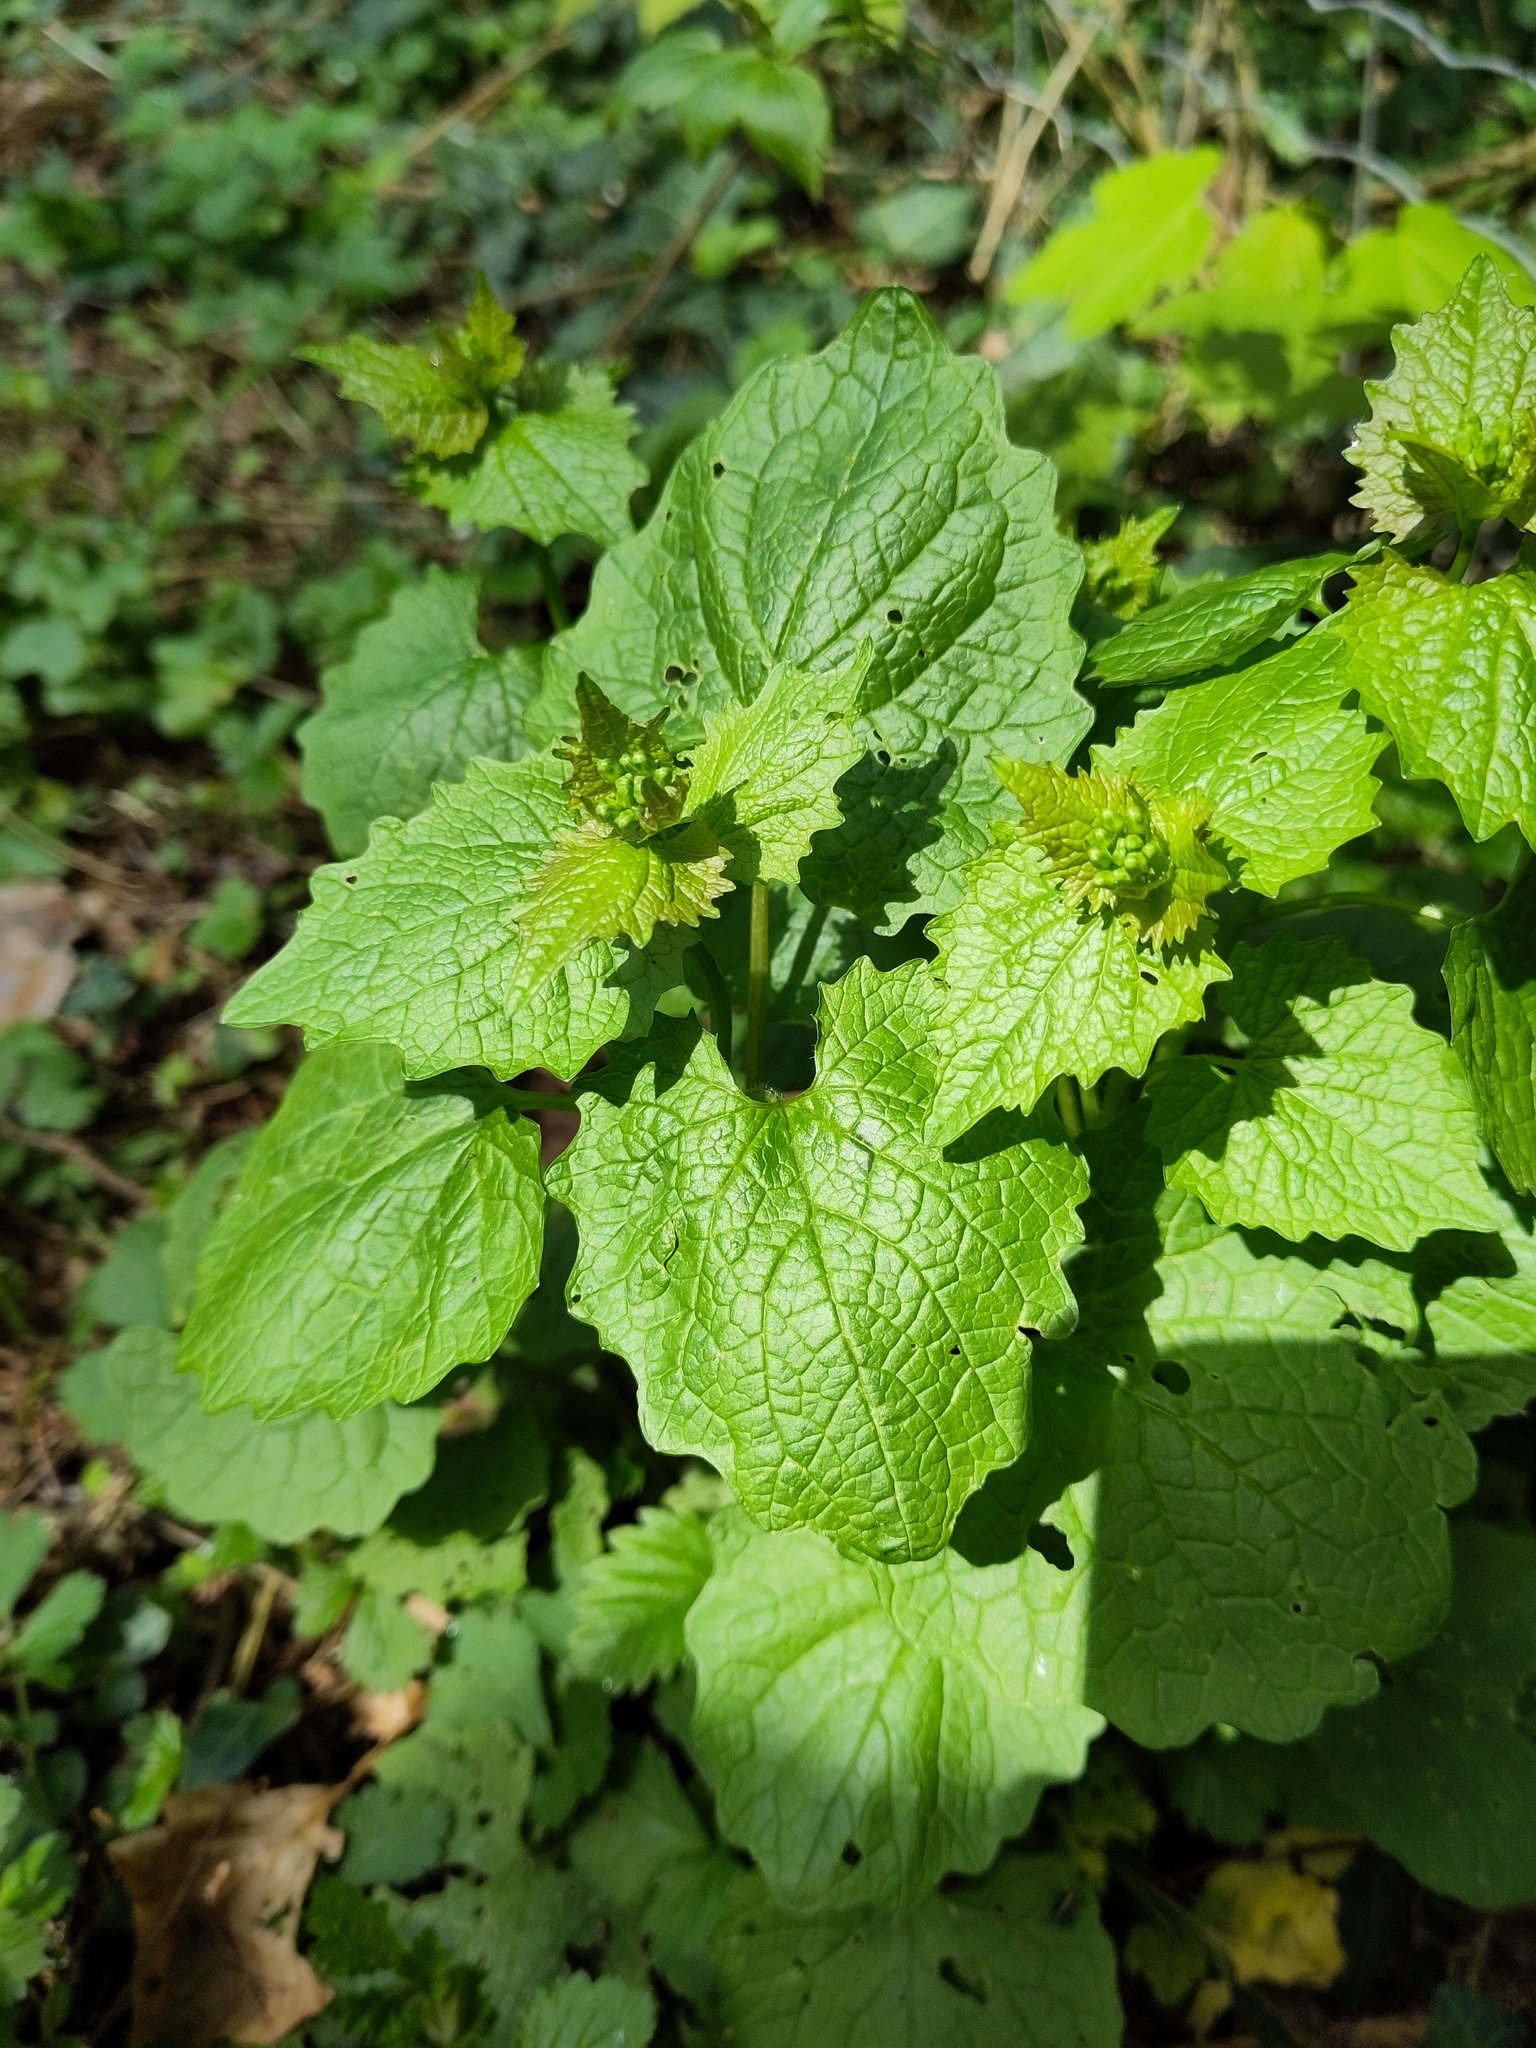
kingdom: Plantae
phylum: Tracheophyta
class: Magnoliopsida
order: Brassicales
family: Brassicaceae
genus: Alliaria
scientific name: Alliaria petiolata
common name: Garlic mustard
